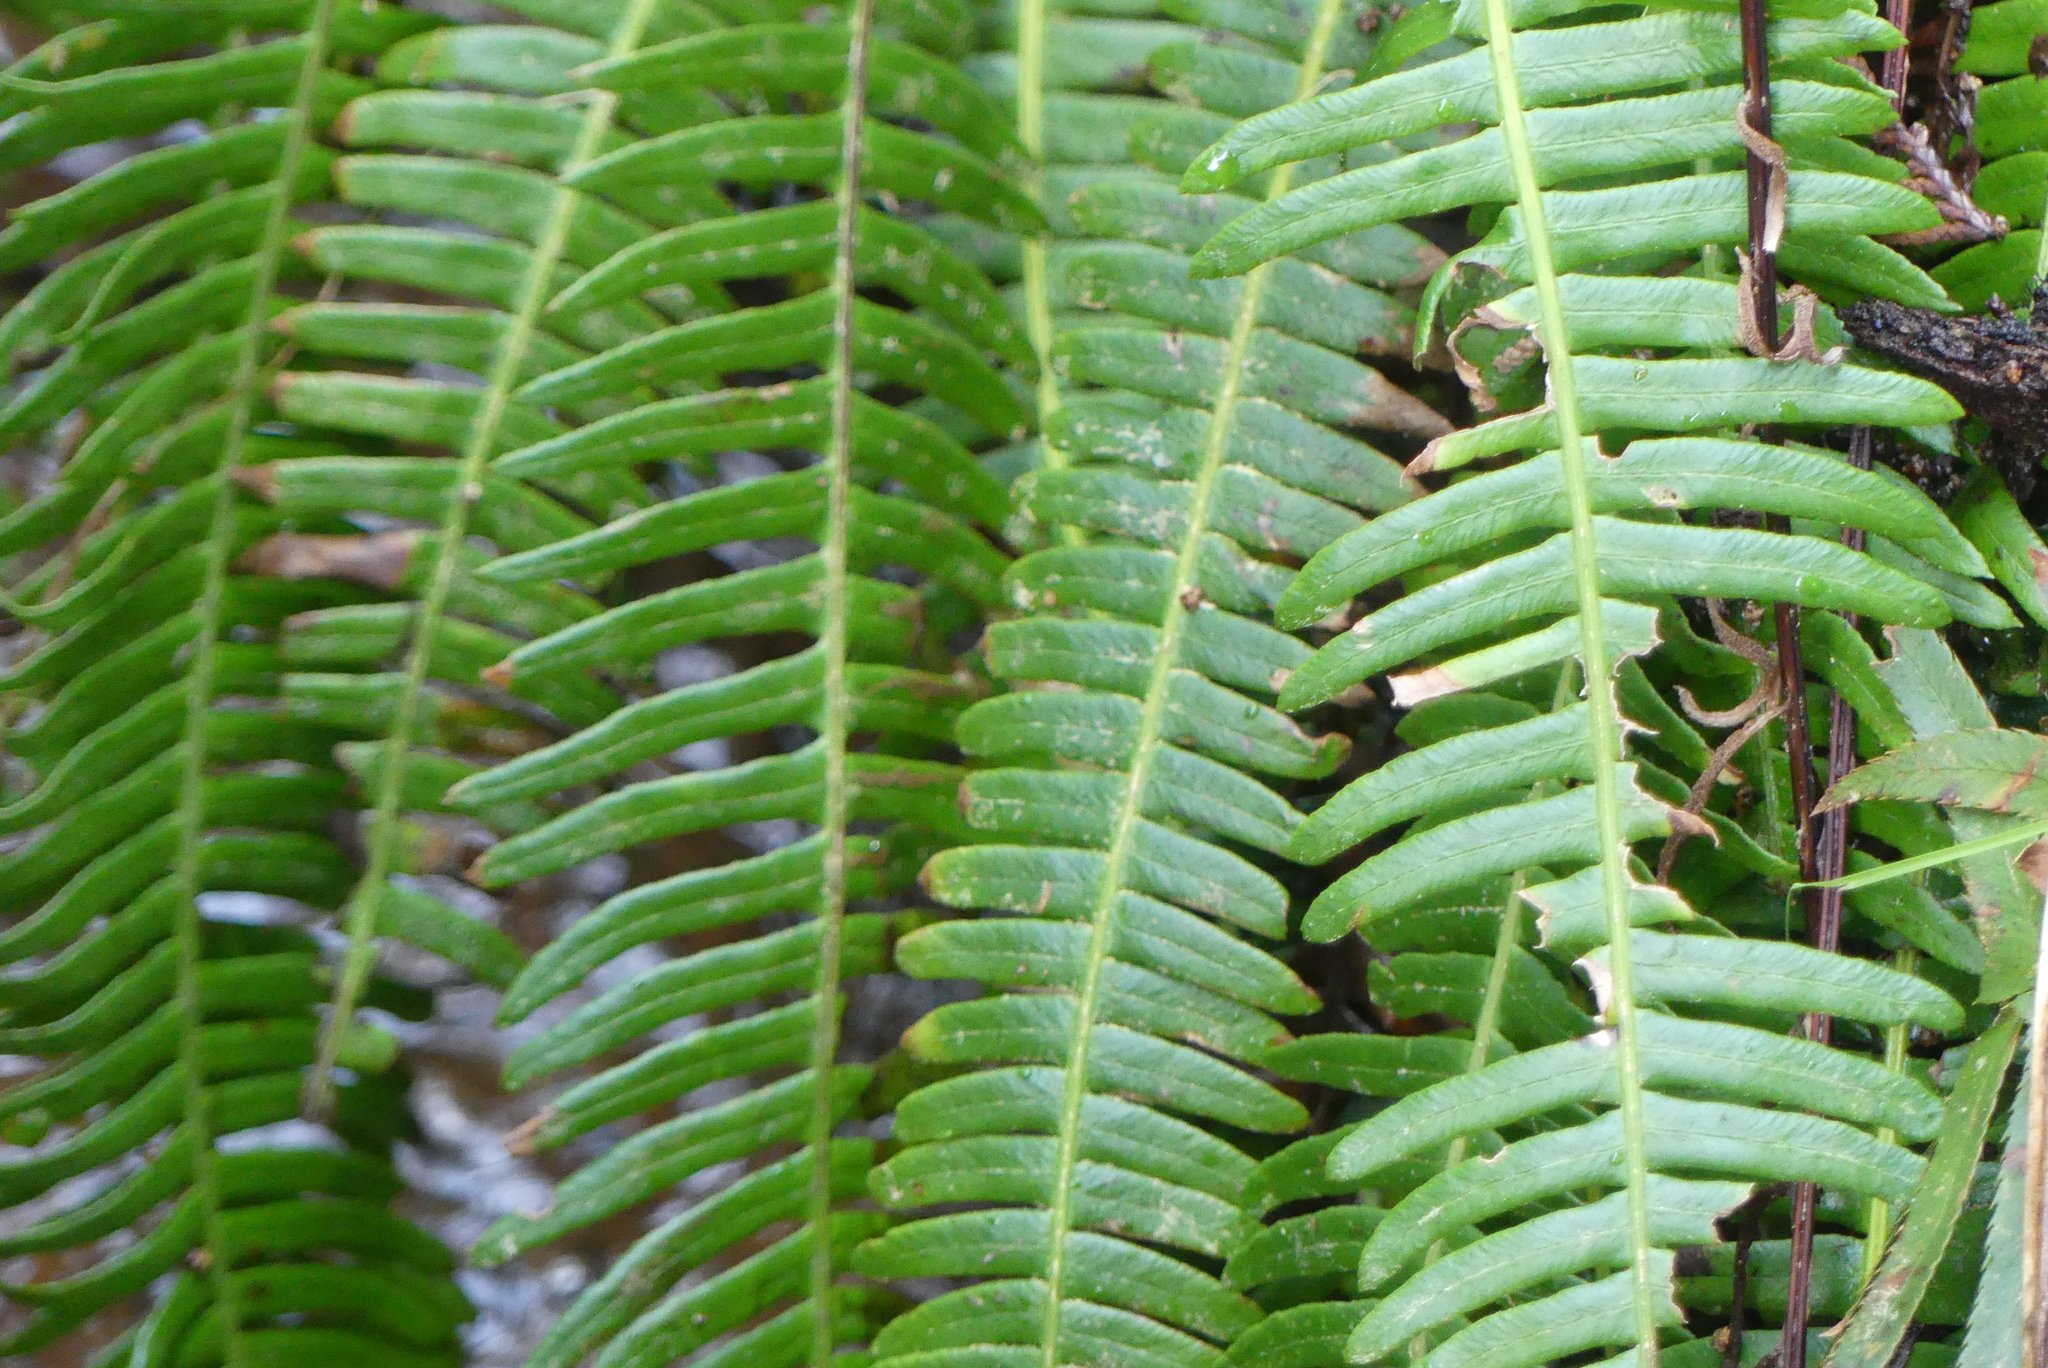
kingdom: Plantae
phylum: Tracheophyta
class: Polypodiopsida
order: Polypodiales
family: Blechnaceae
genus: Struthiopteris
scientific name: Struthiopteris spicant
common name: Deer fern
